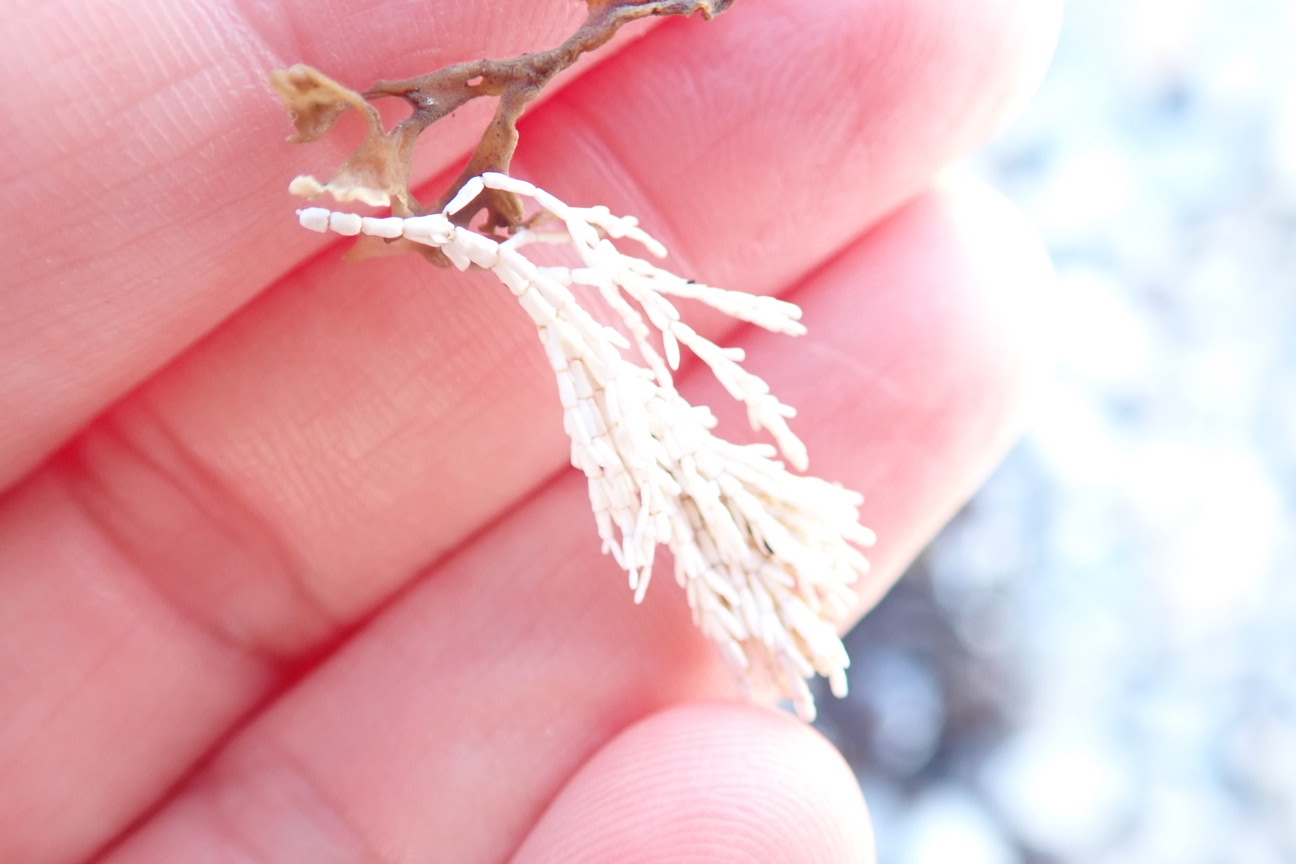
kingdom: Plantae
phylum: Rhodophyta
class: Florideophyceae
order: Corallinales
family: Corallinaceae
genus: Corallina
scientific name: Corallina officinalis
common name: Coral weed
